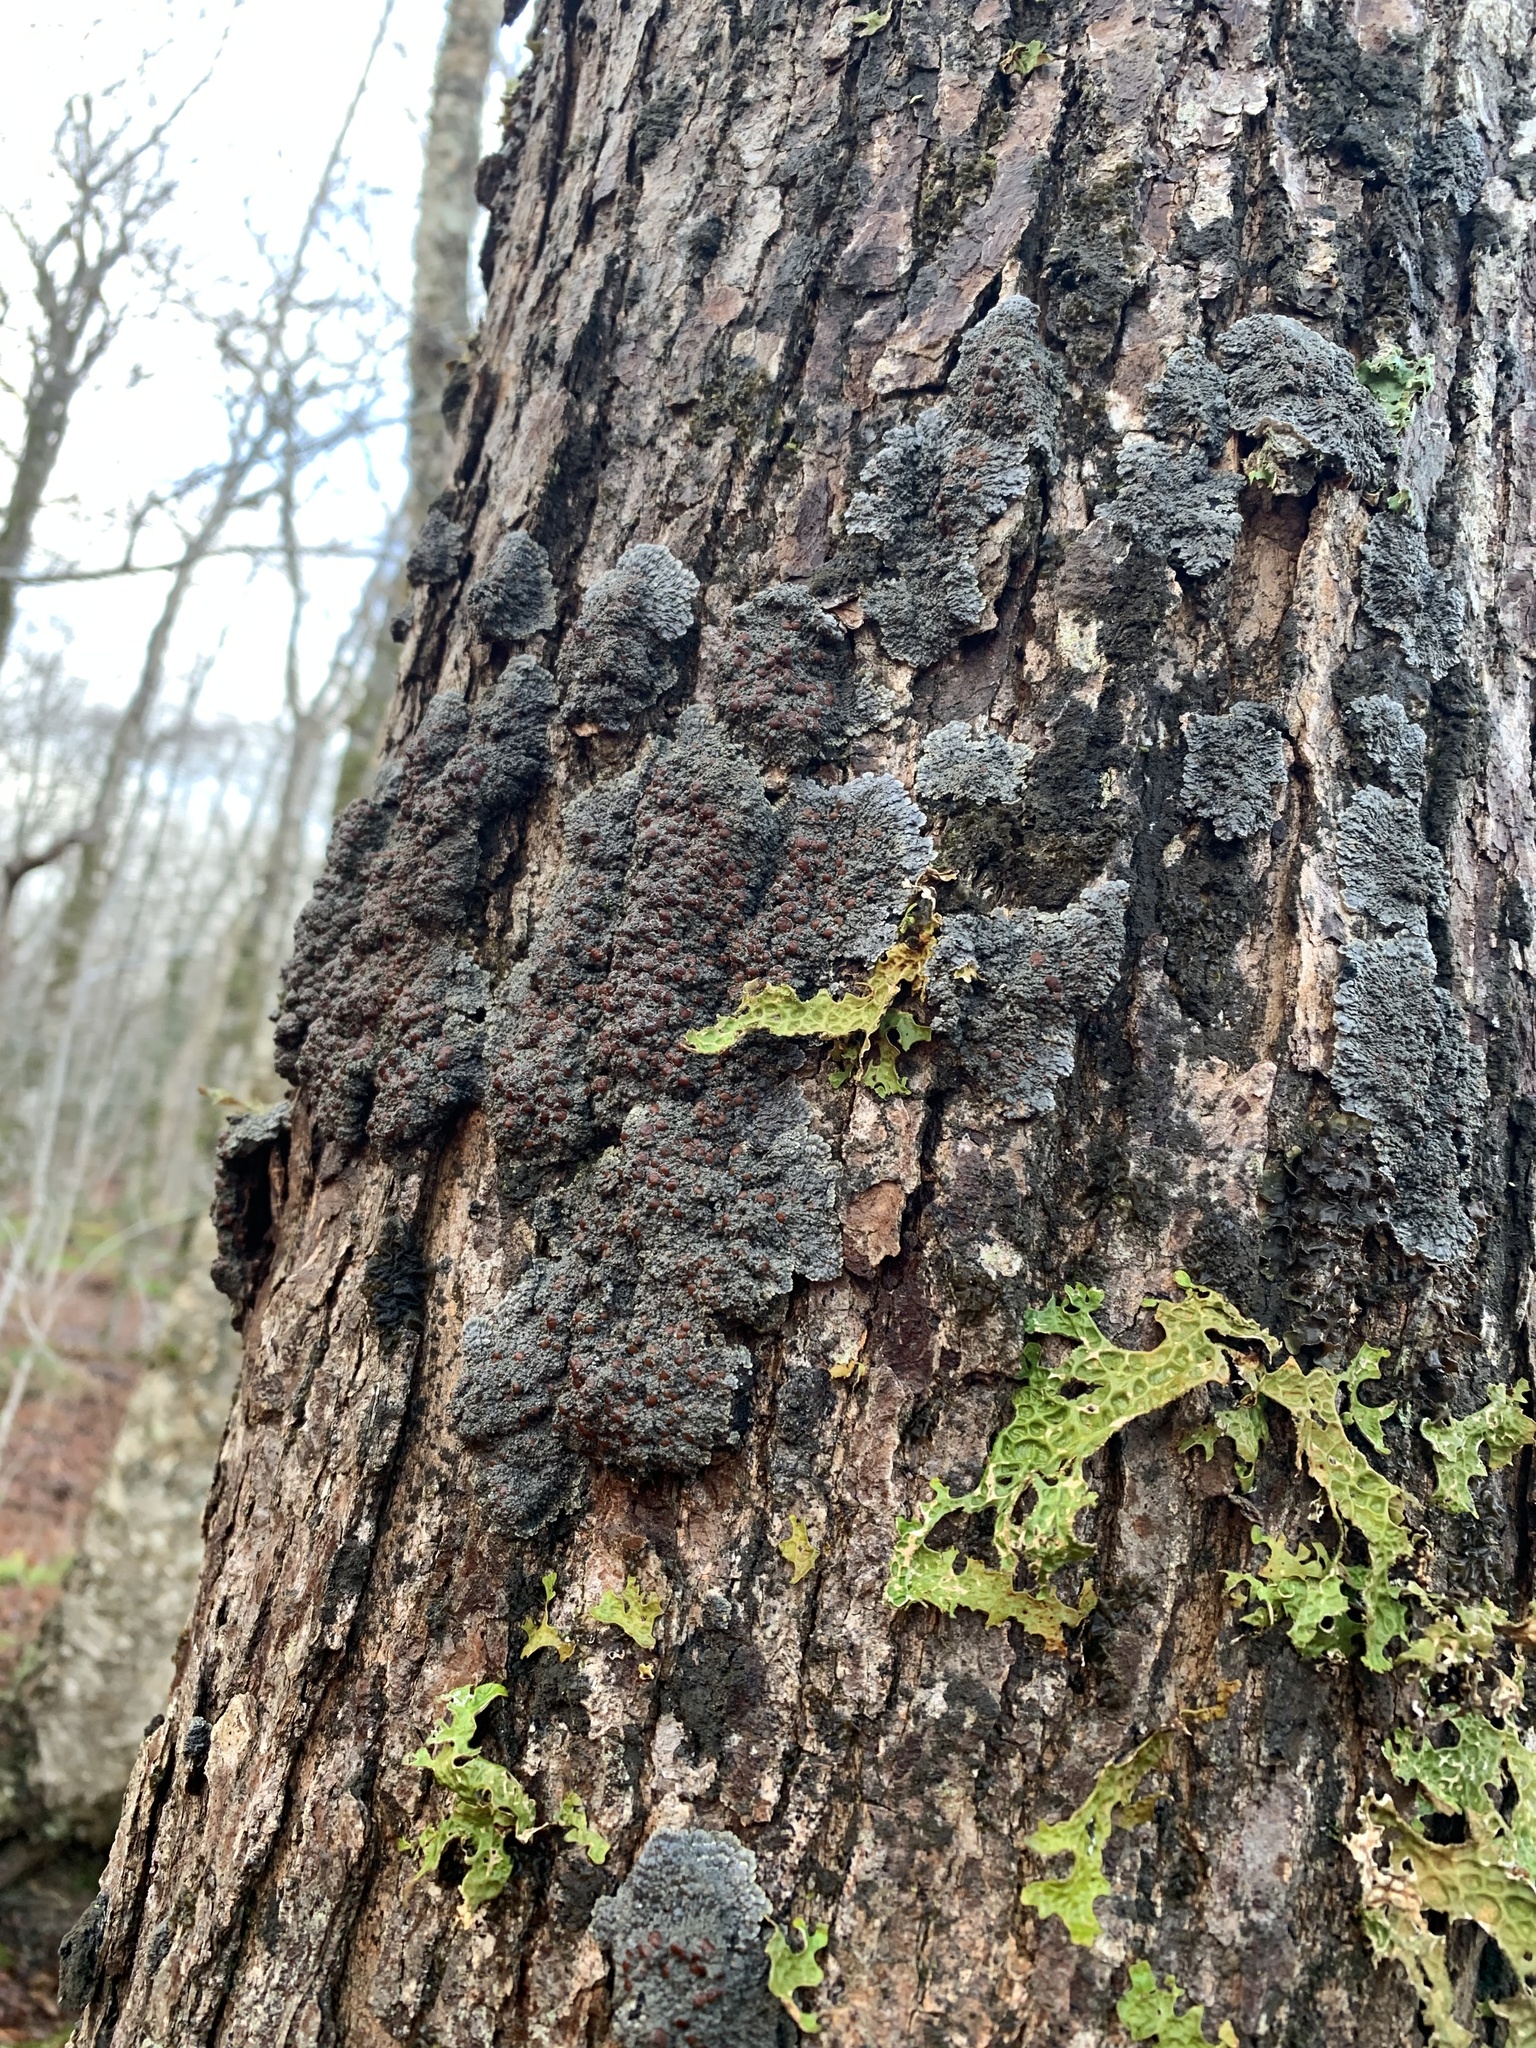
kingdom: Fungi
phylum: Ascomycota
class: Lecanoromycetes
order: Peltigerales
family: Pannariaceae
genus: Pectenia
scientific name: Pectenia plumbea
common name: Bladder stalks
